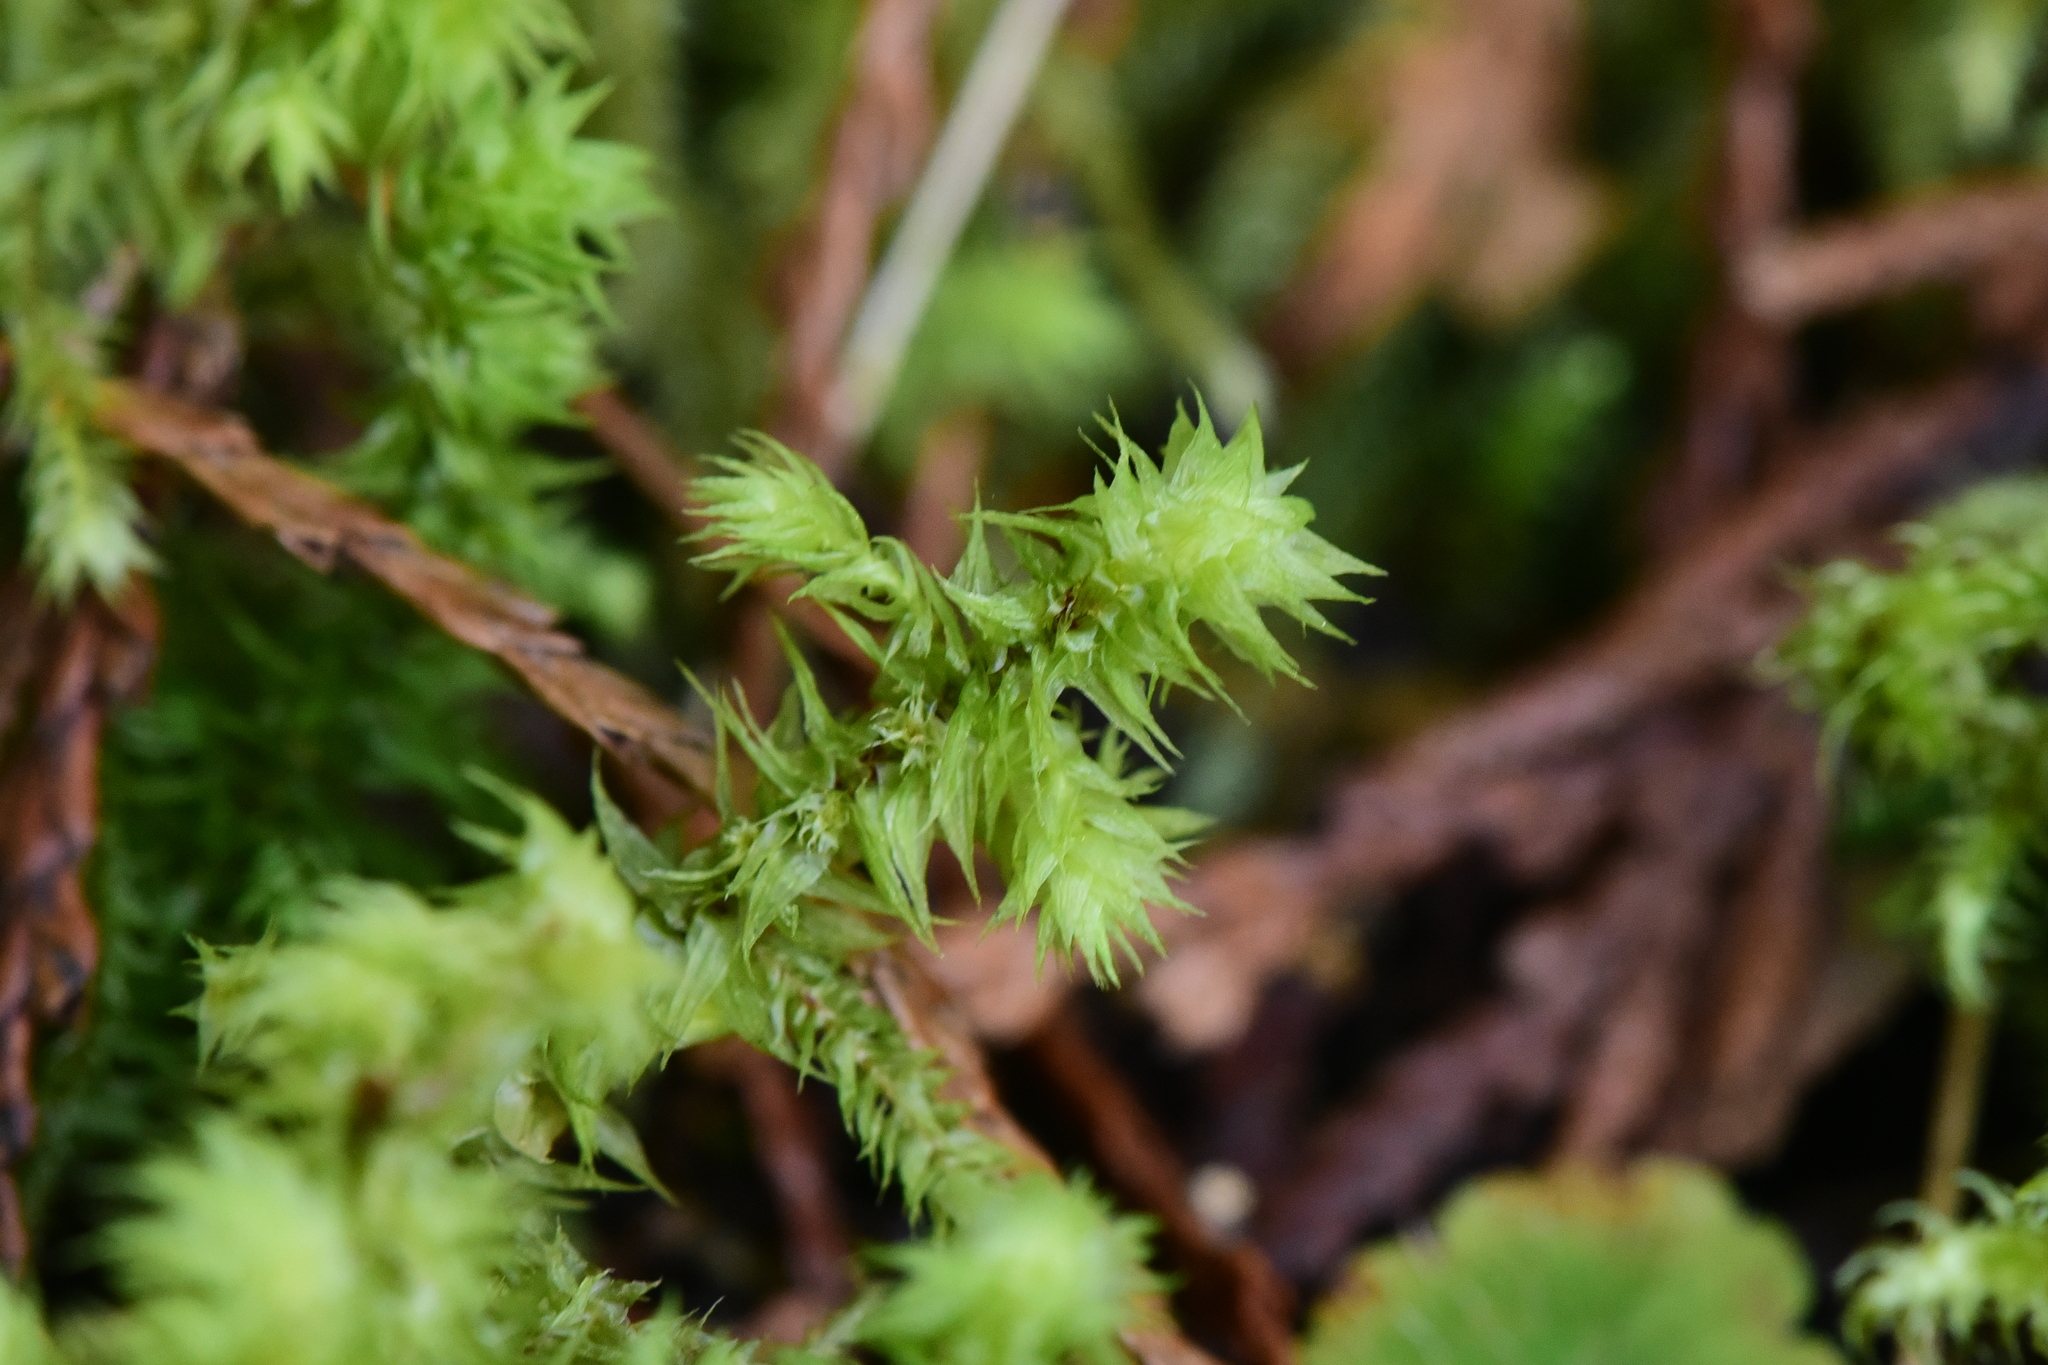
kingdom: Plantae
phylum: Bryophyta
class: Bryopsida
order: Hypnales
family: Hylocomiaceae
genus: Hylocomiadelphus
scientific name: Hylocomiadelphus triquetrus
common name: Rough goose neck moss
